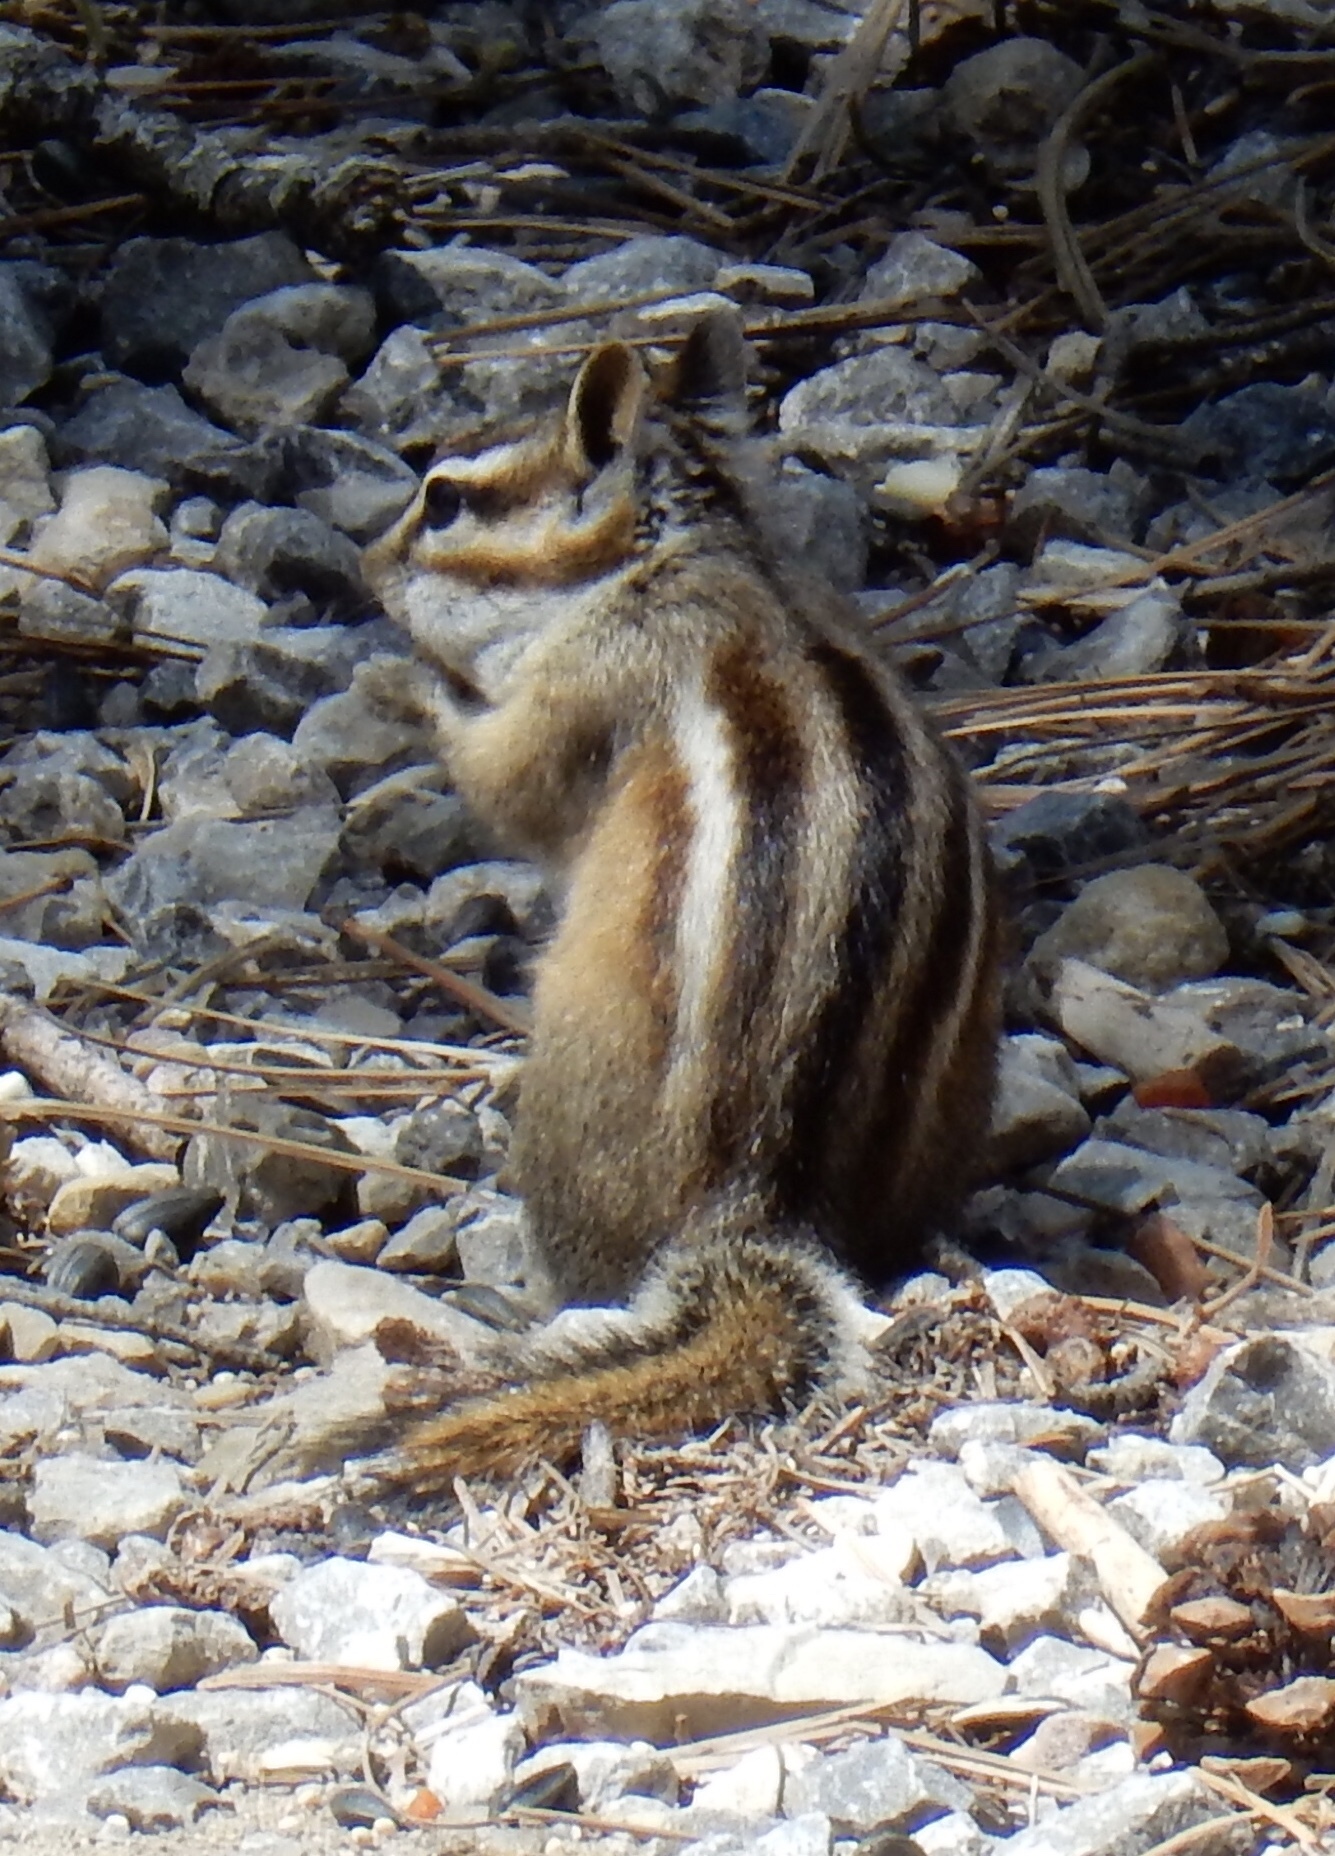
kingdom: Animalia
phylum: Chordata
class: Mammalia
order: Rodentia
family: Sciuridae
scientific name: Sciuridae
